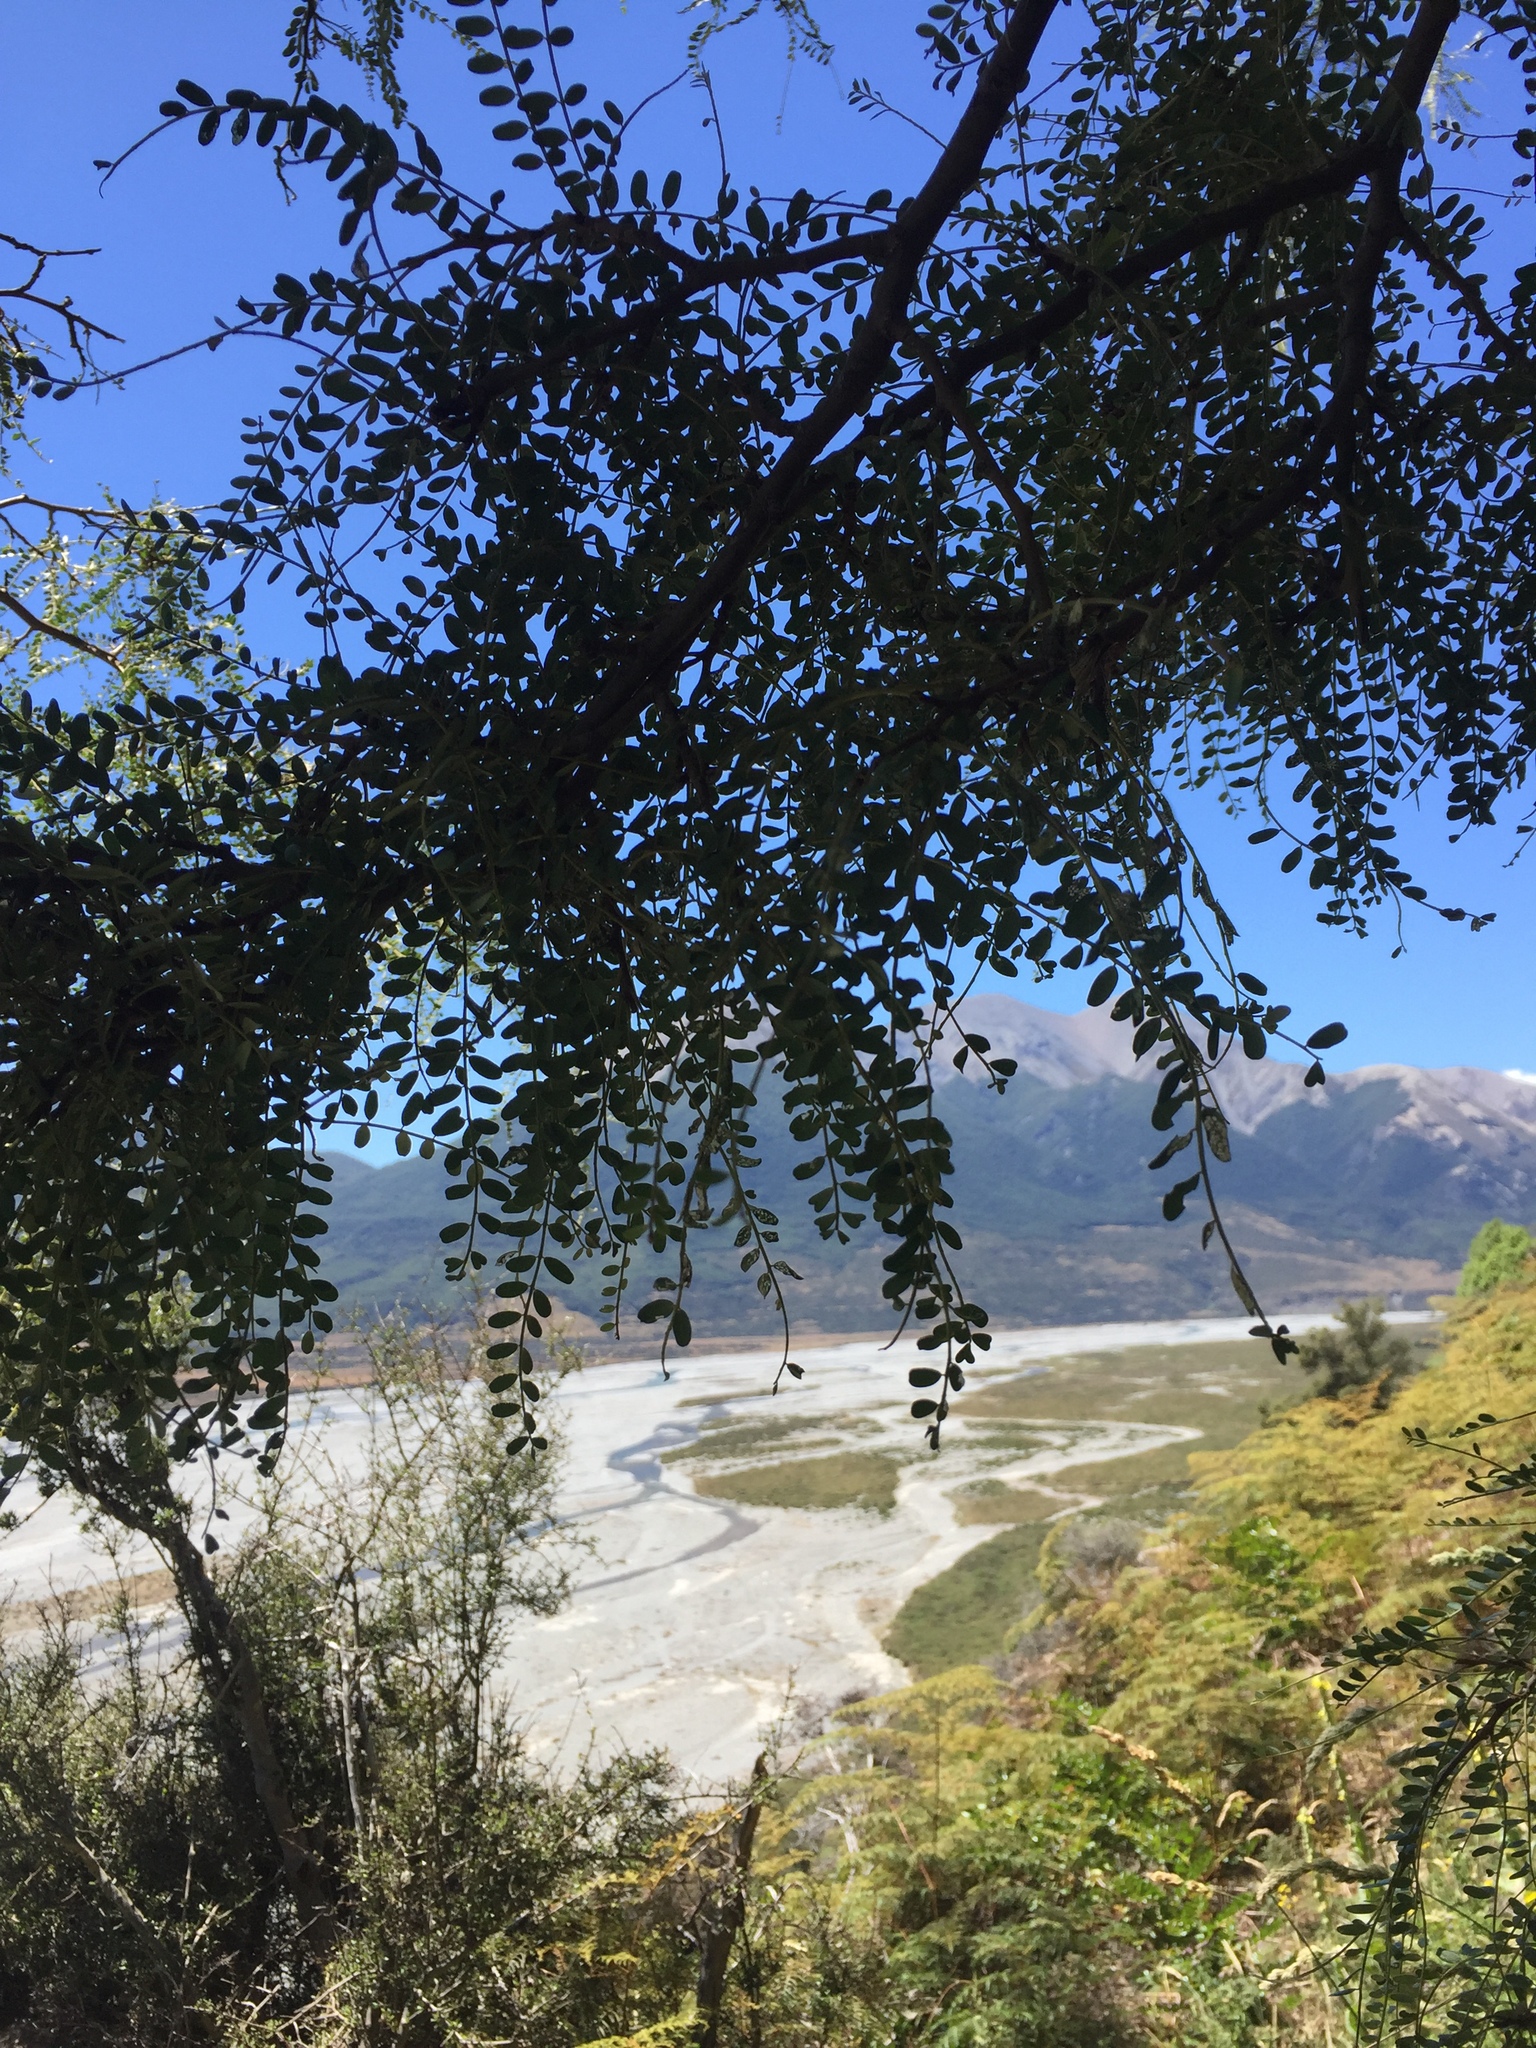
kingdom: Plantae
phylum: Tracheophyta
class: Magnoliopsida
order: Fabales
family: Fabaceae
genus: Sophora
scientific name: Sophora microphylla
